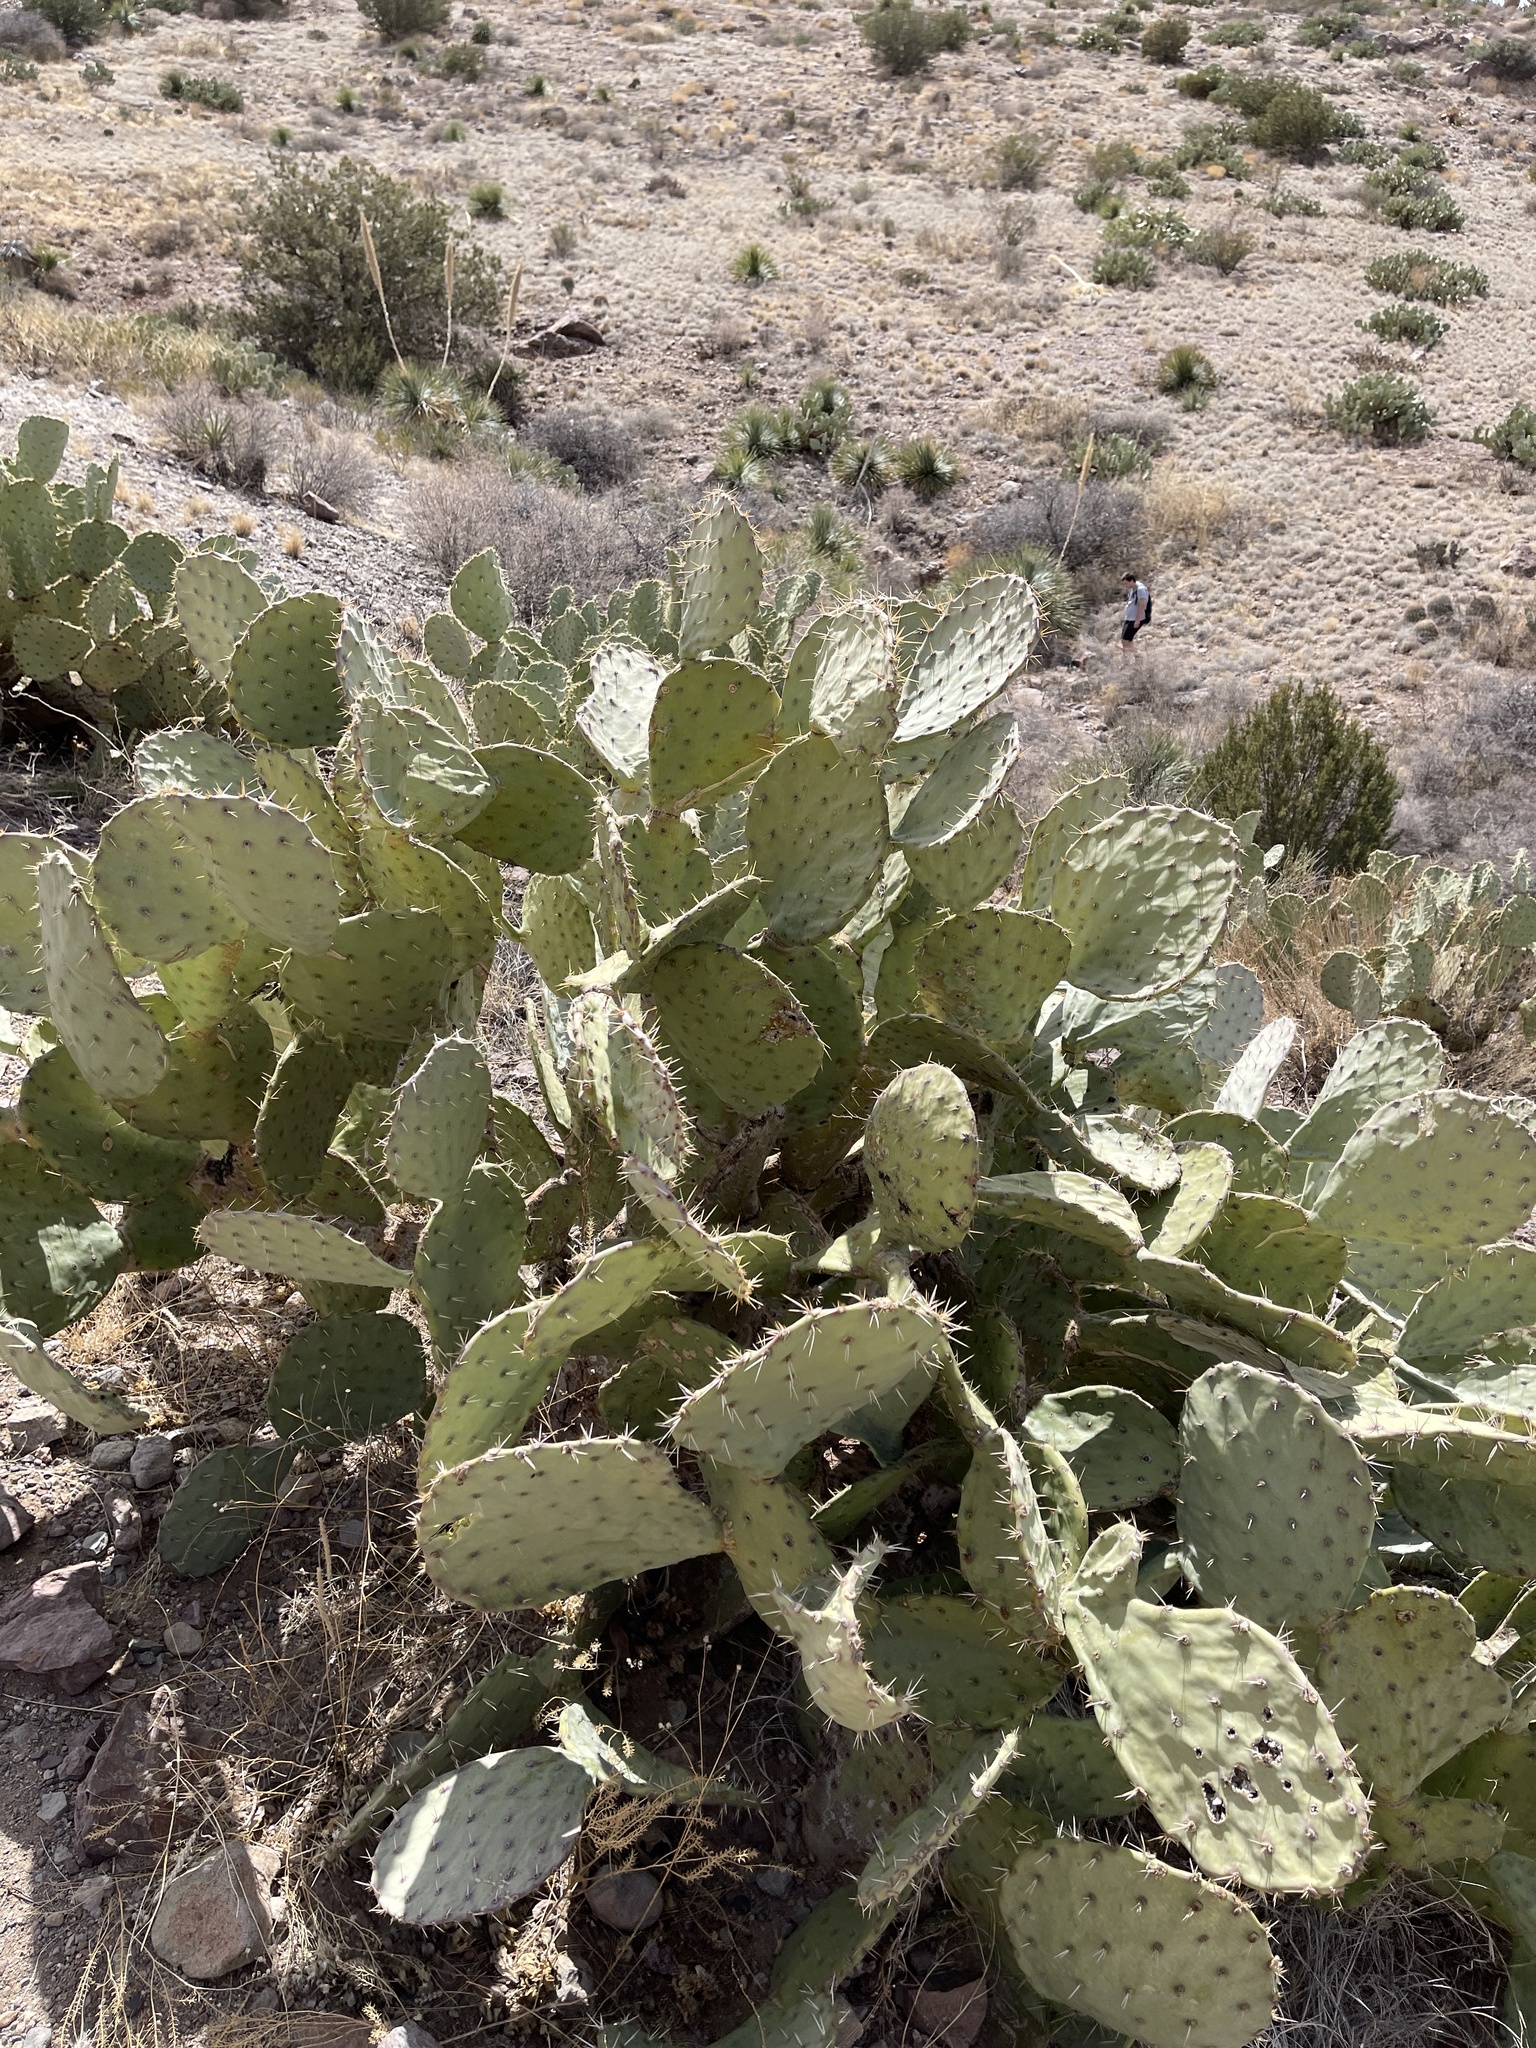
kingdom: Plantae
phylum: Tracheophyta
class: Magnoliopsida
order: Caryophyllales
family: Cactaceae
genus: Opuntia
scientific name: Opuntia engelmannii
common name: Cactus-apple
